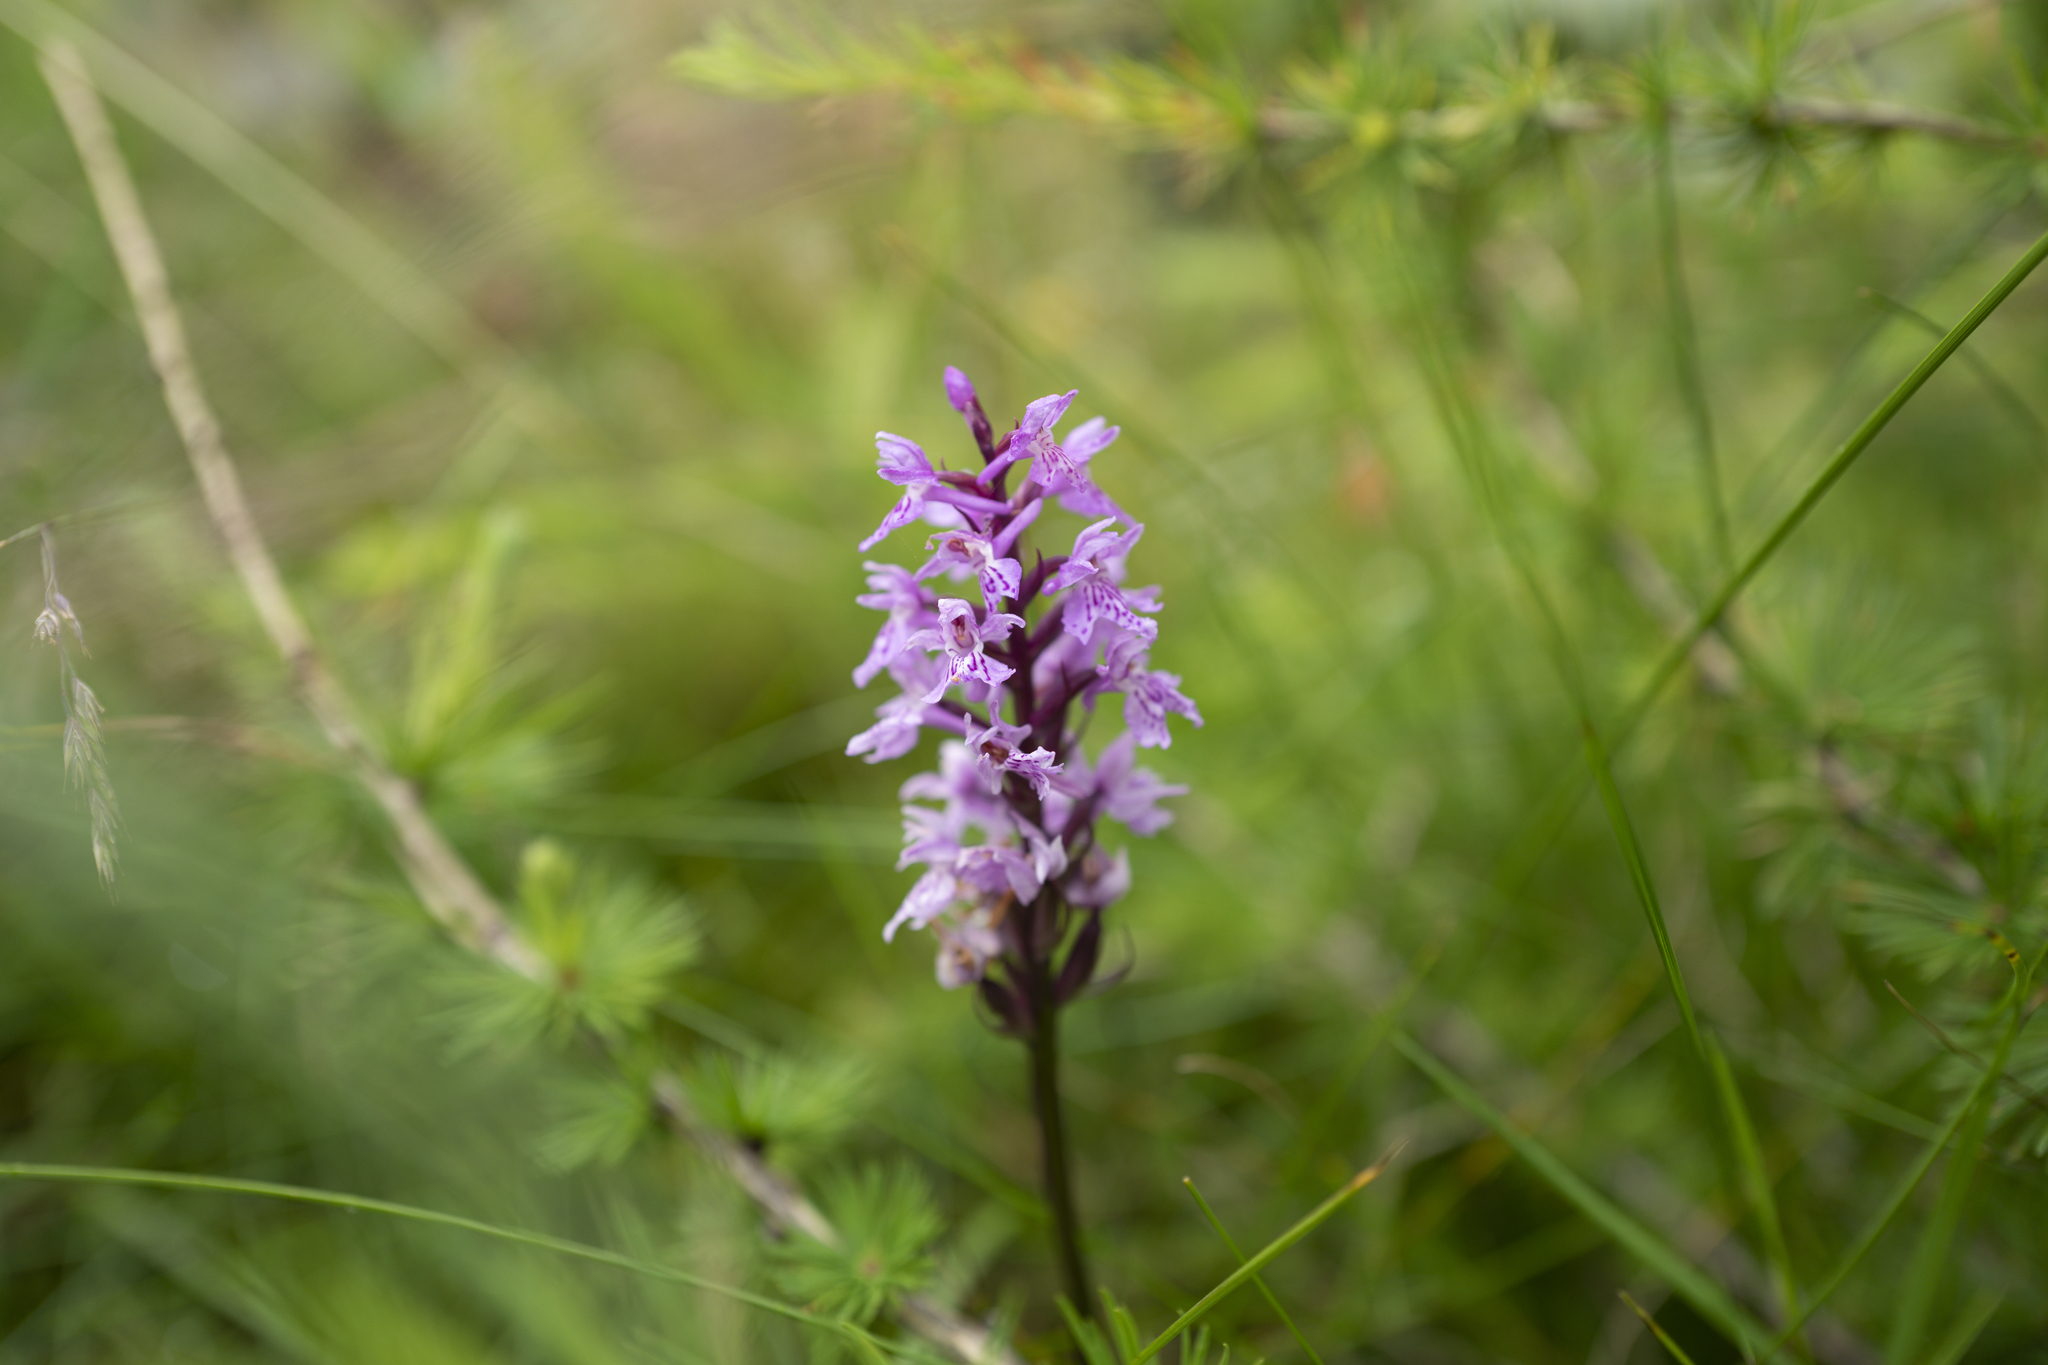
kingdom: Plantae
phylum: Tracheophyta
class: Liliopsida
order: Asparagales
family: Orchidaceae
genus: Dactylorhiza
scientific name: Dactylorhiza maculata
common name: Heath spotted-orchid
